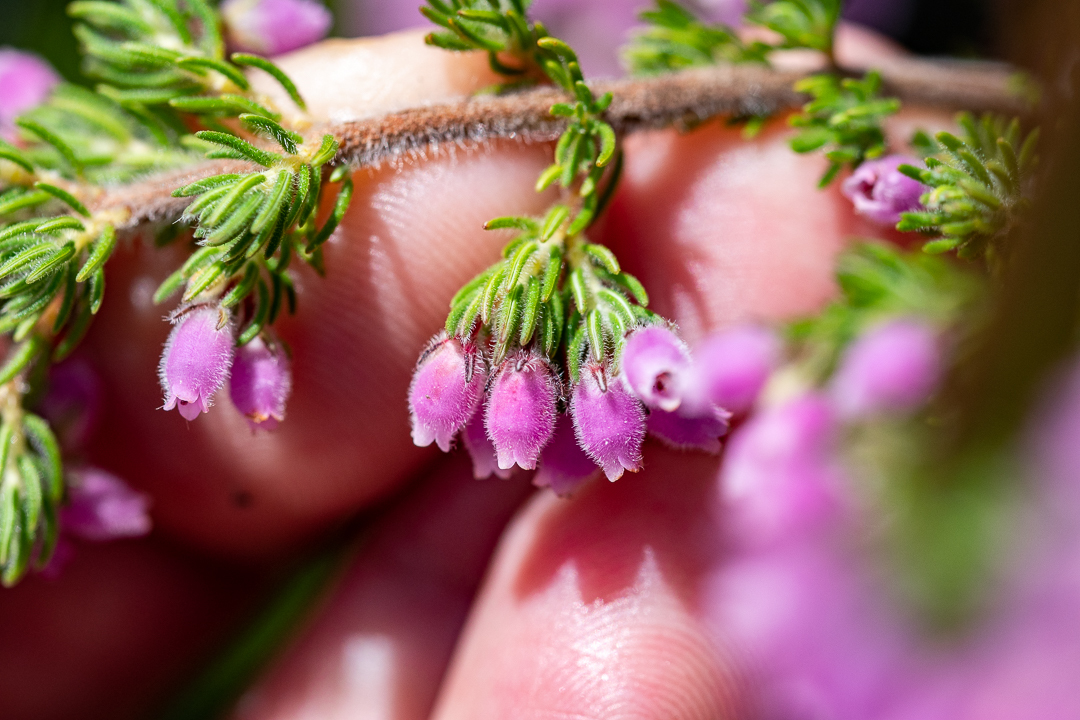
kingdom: Plantae
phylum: Tracheophyta
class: Magnoliopsida
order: Ericales
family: Ericaceae
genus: Erica
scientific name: Erica hirtiflora
